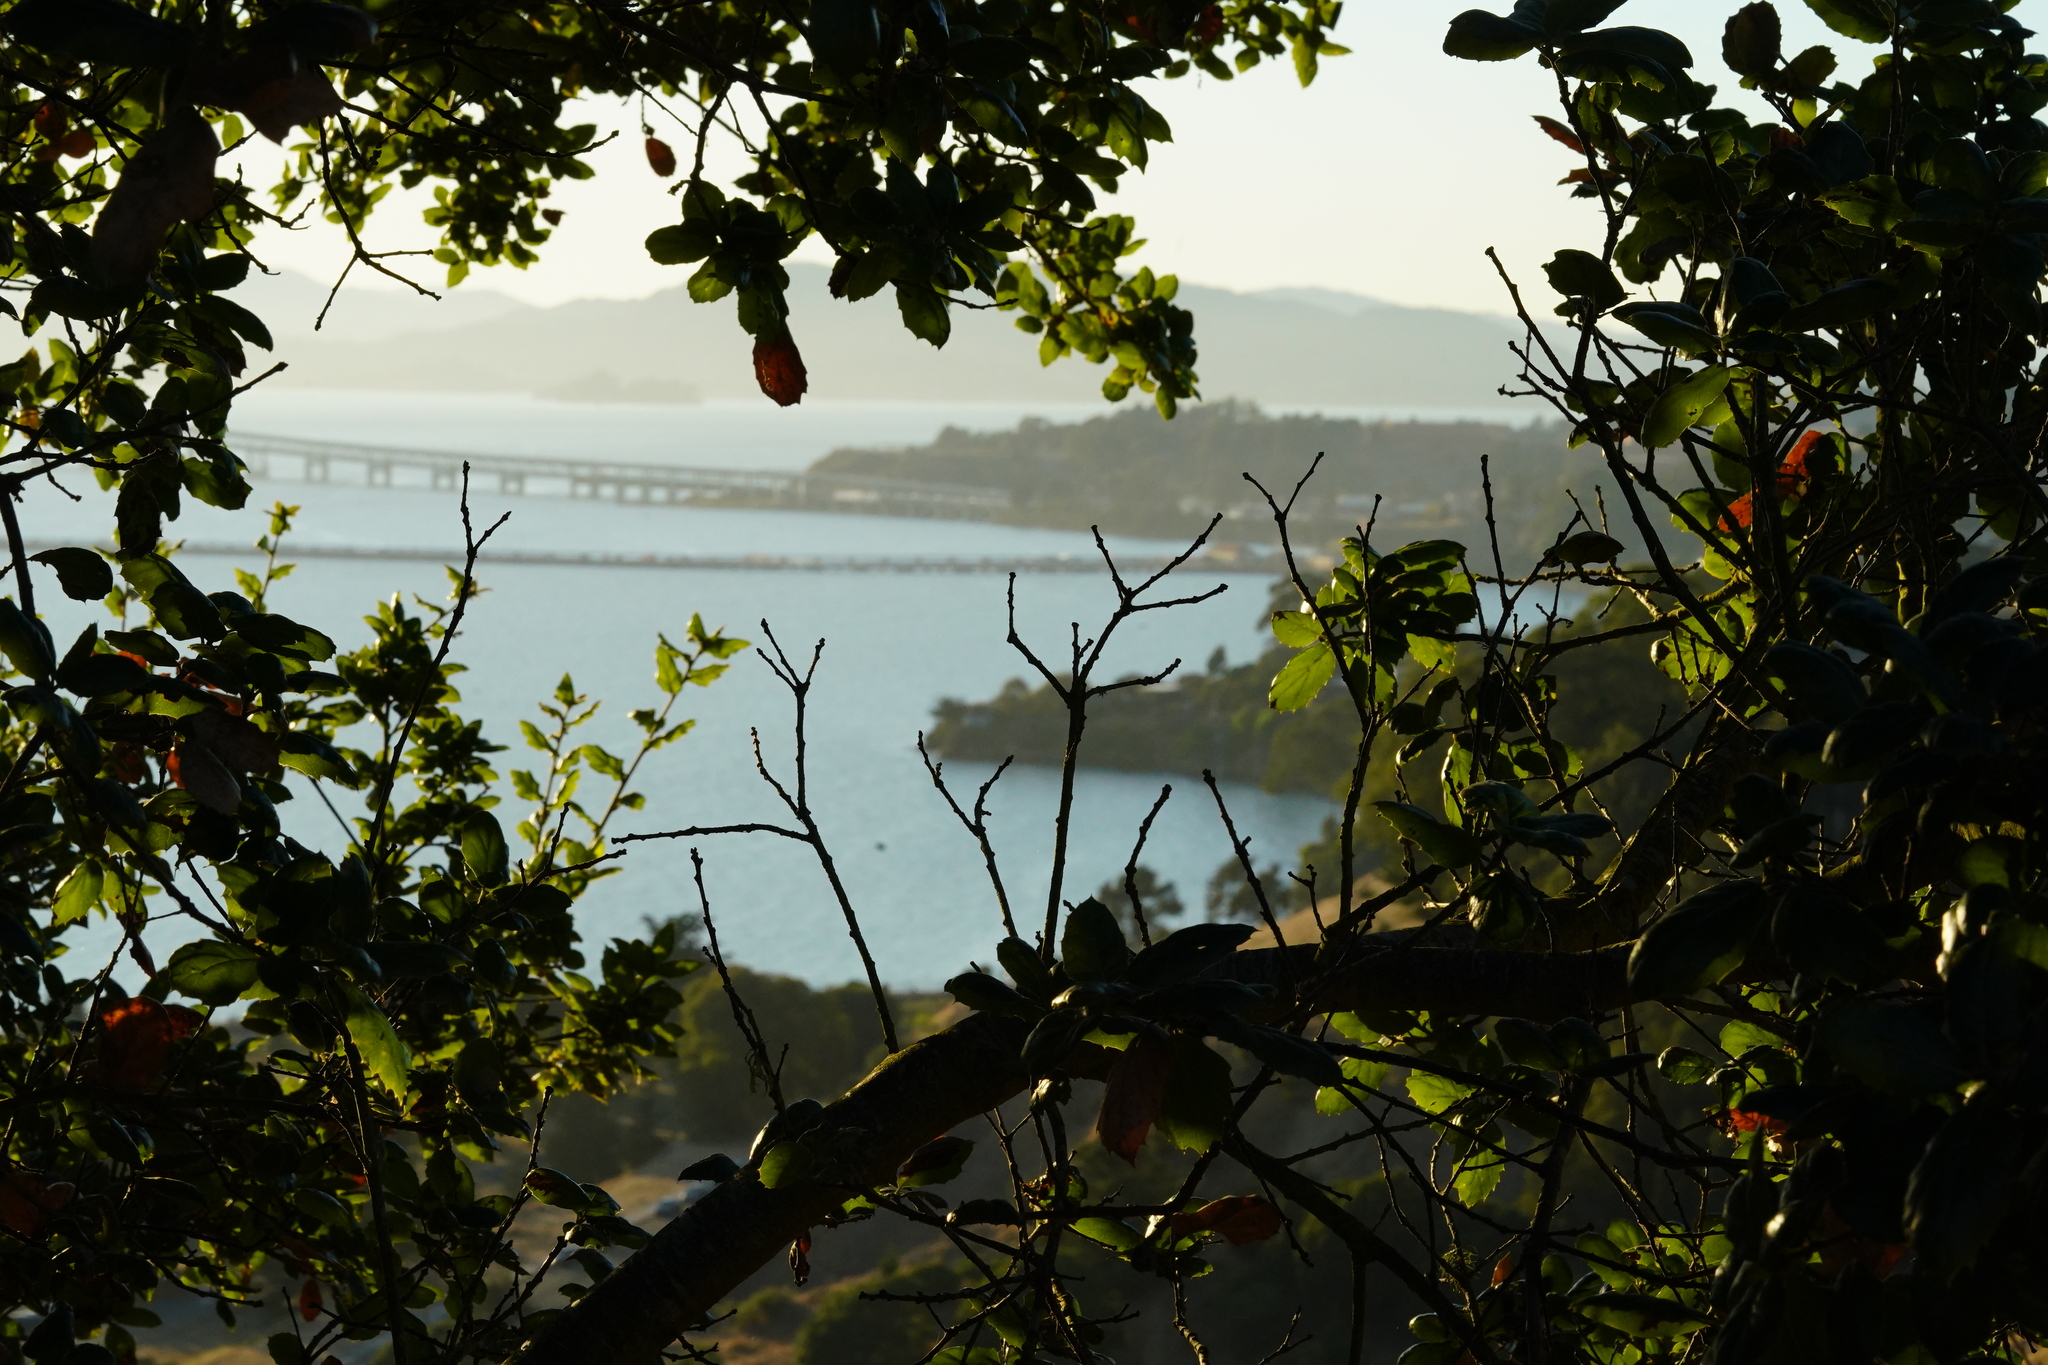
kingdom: Plantae
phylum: Tracheophyta
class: Magnoliopsida
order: Fagales
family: Fagaceae
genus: Quercus
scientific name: Quercus agrifolia
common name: California live oak
